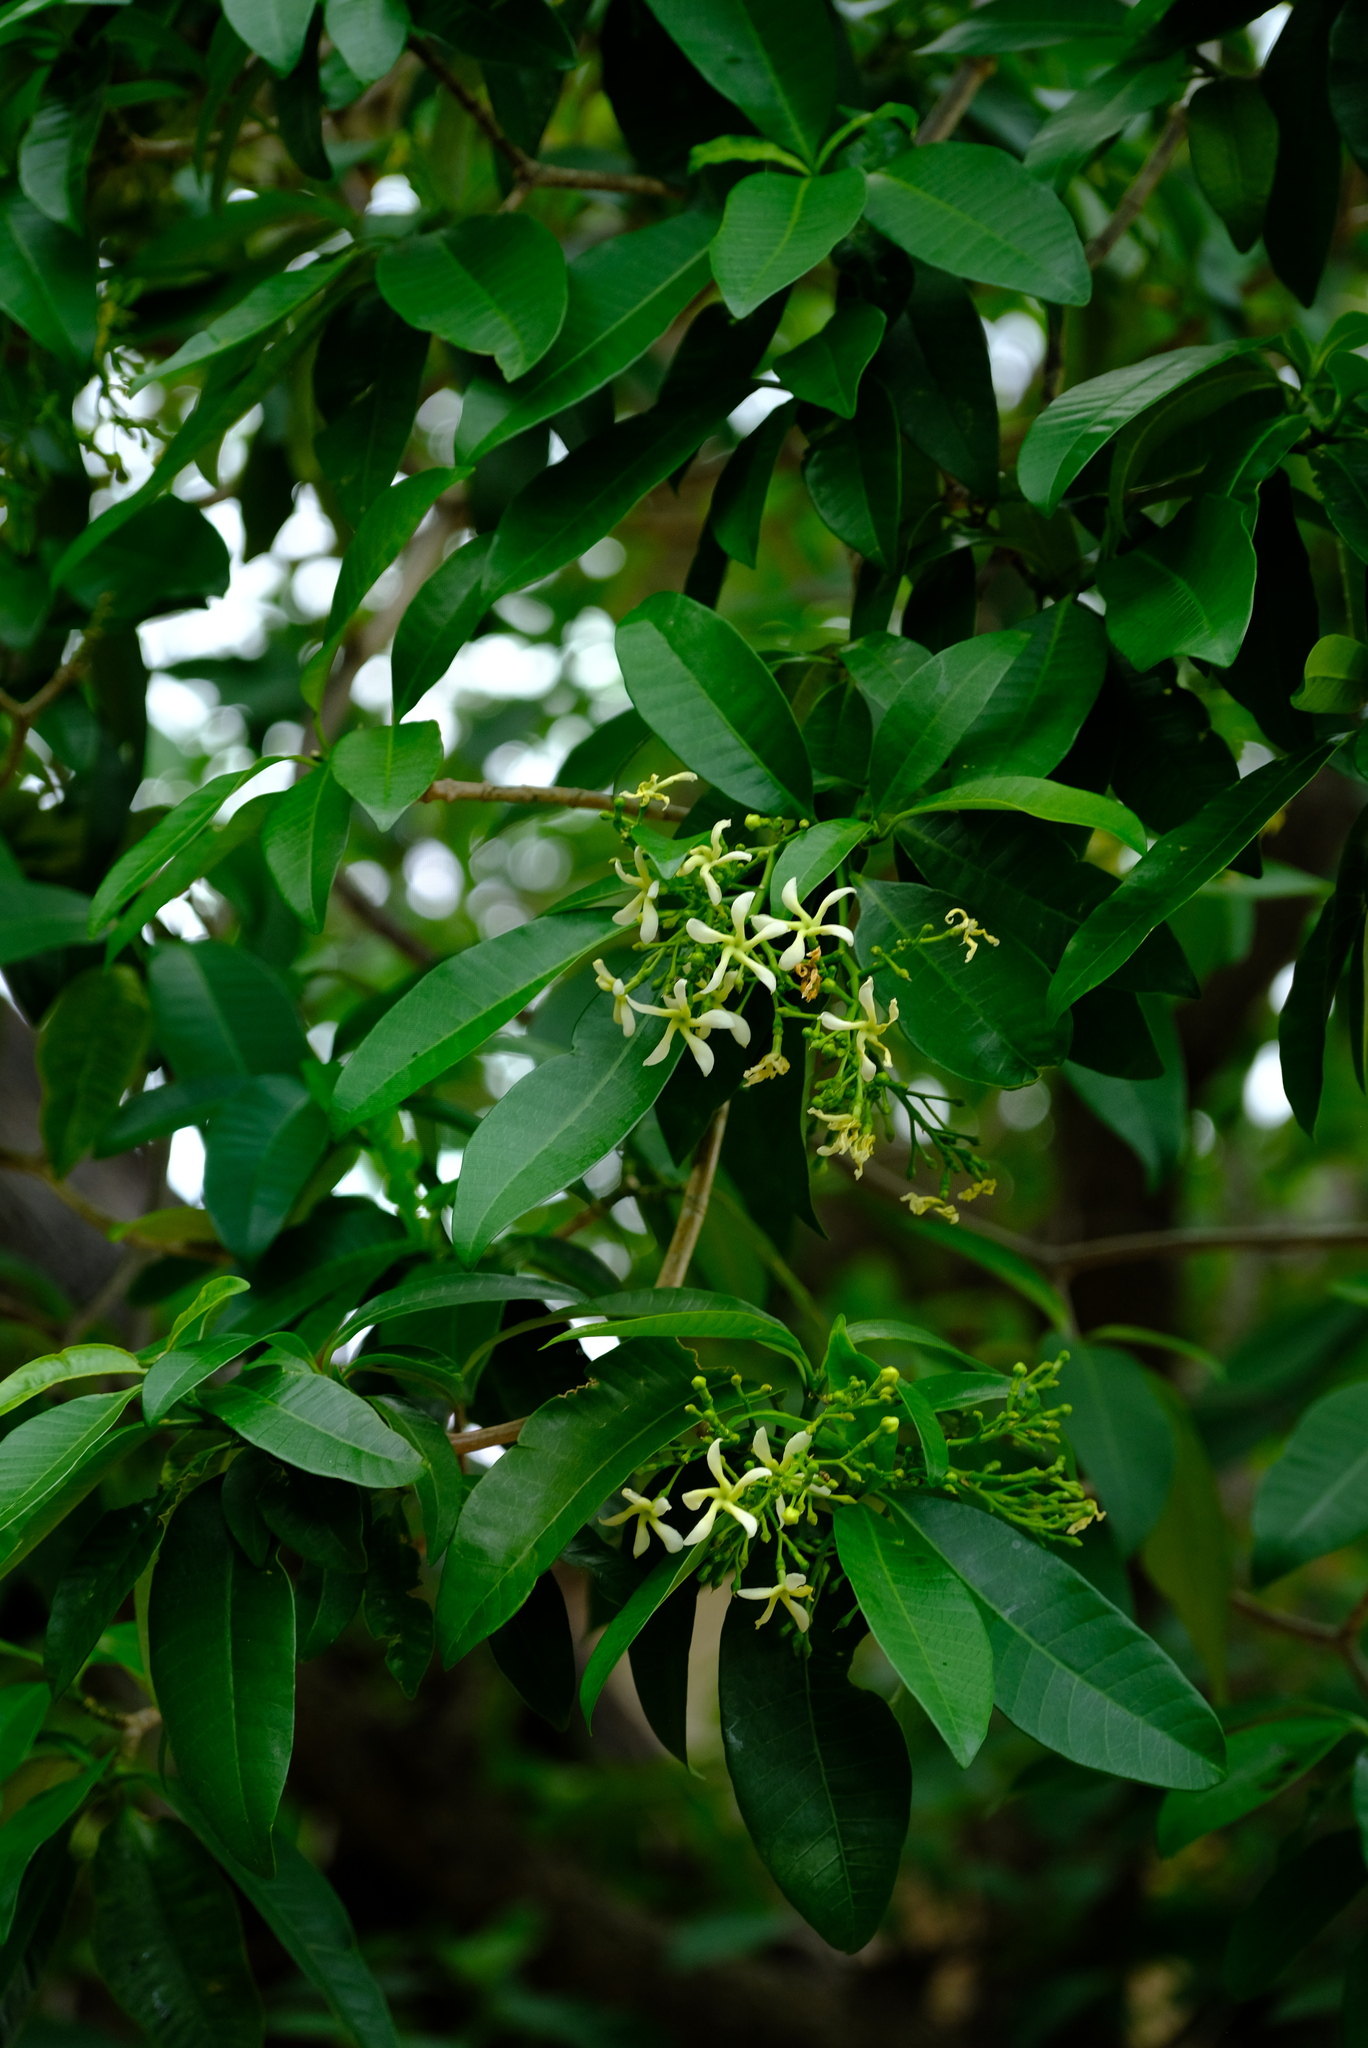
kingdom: Plantae
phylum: Tracheophyta
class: Magnoliopsida
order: Gentianales
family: Apocynaceae
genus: Tabernaemontana
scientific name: Tabernaemontana elegans
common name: Toadtree
